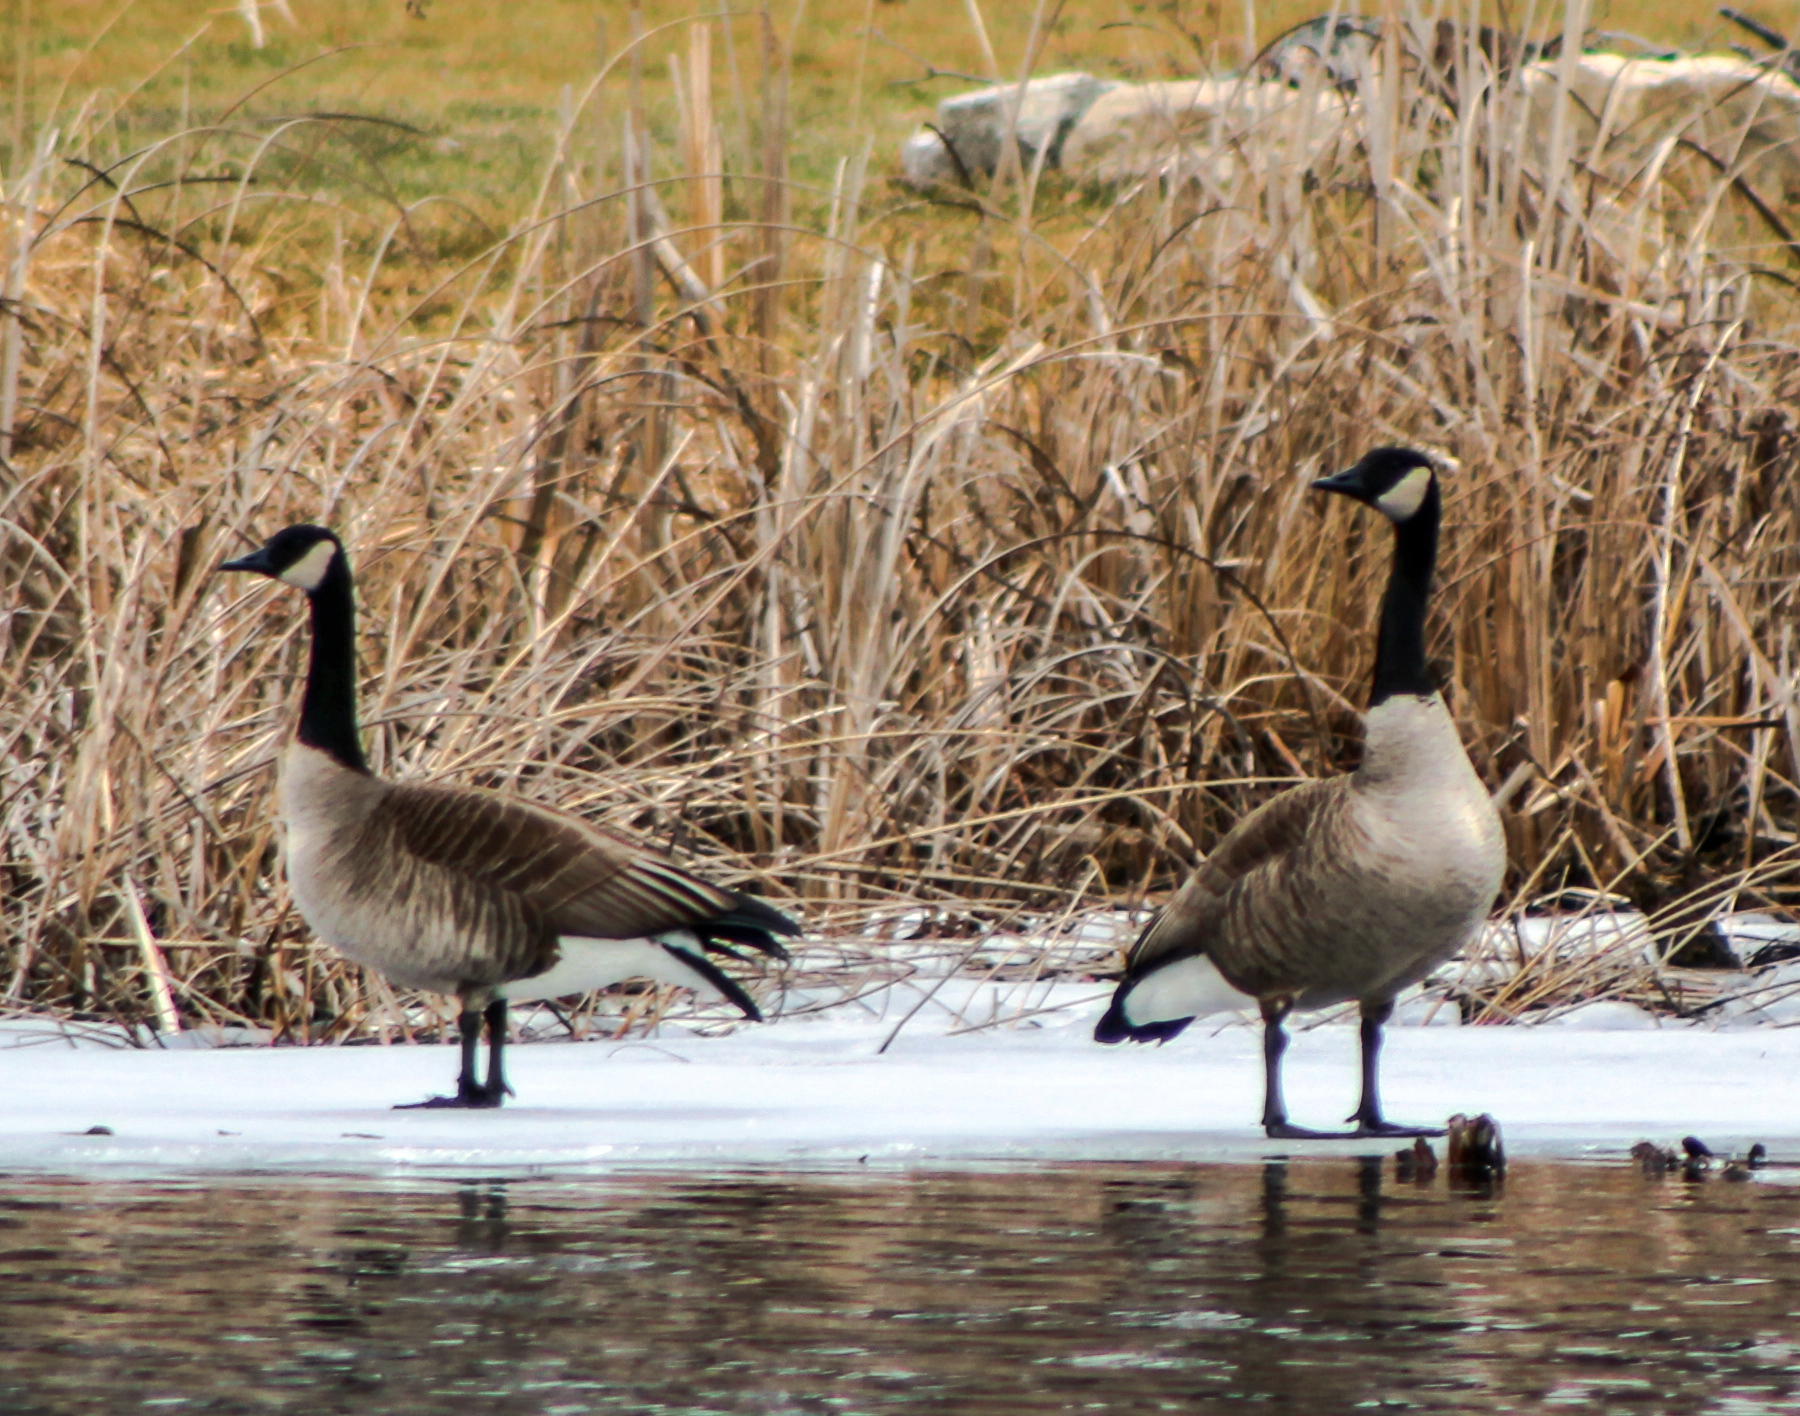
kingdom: Animalia
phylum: Chordata
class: Aves
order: Anseriformes
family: Anatidae
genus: Branta
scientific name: Branta canadensis
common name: Canada goose
